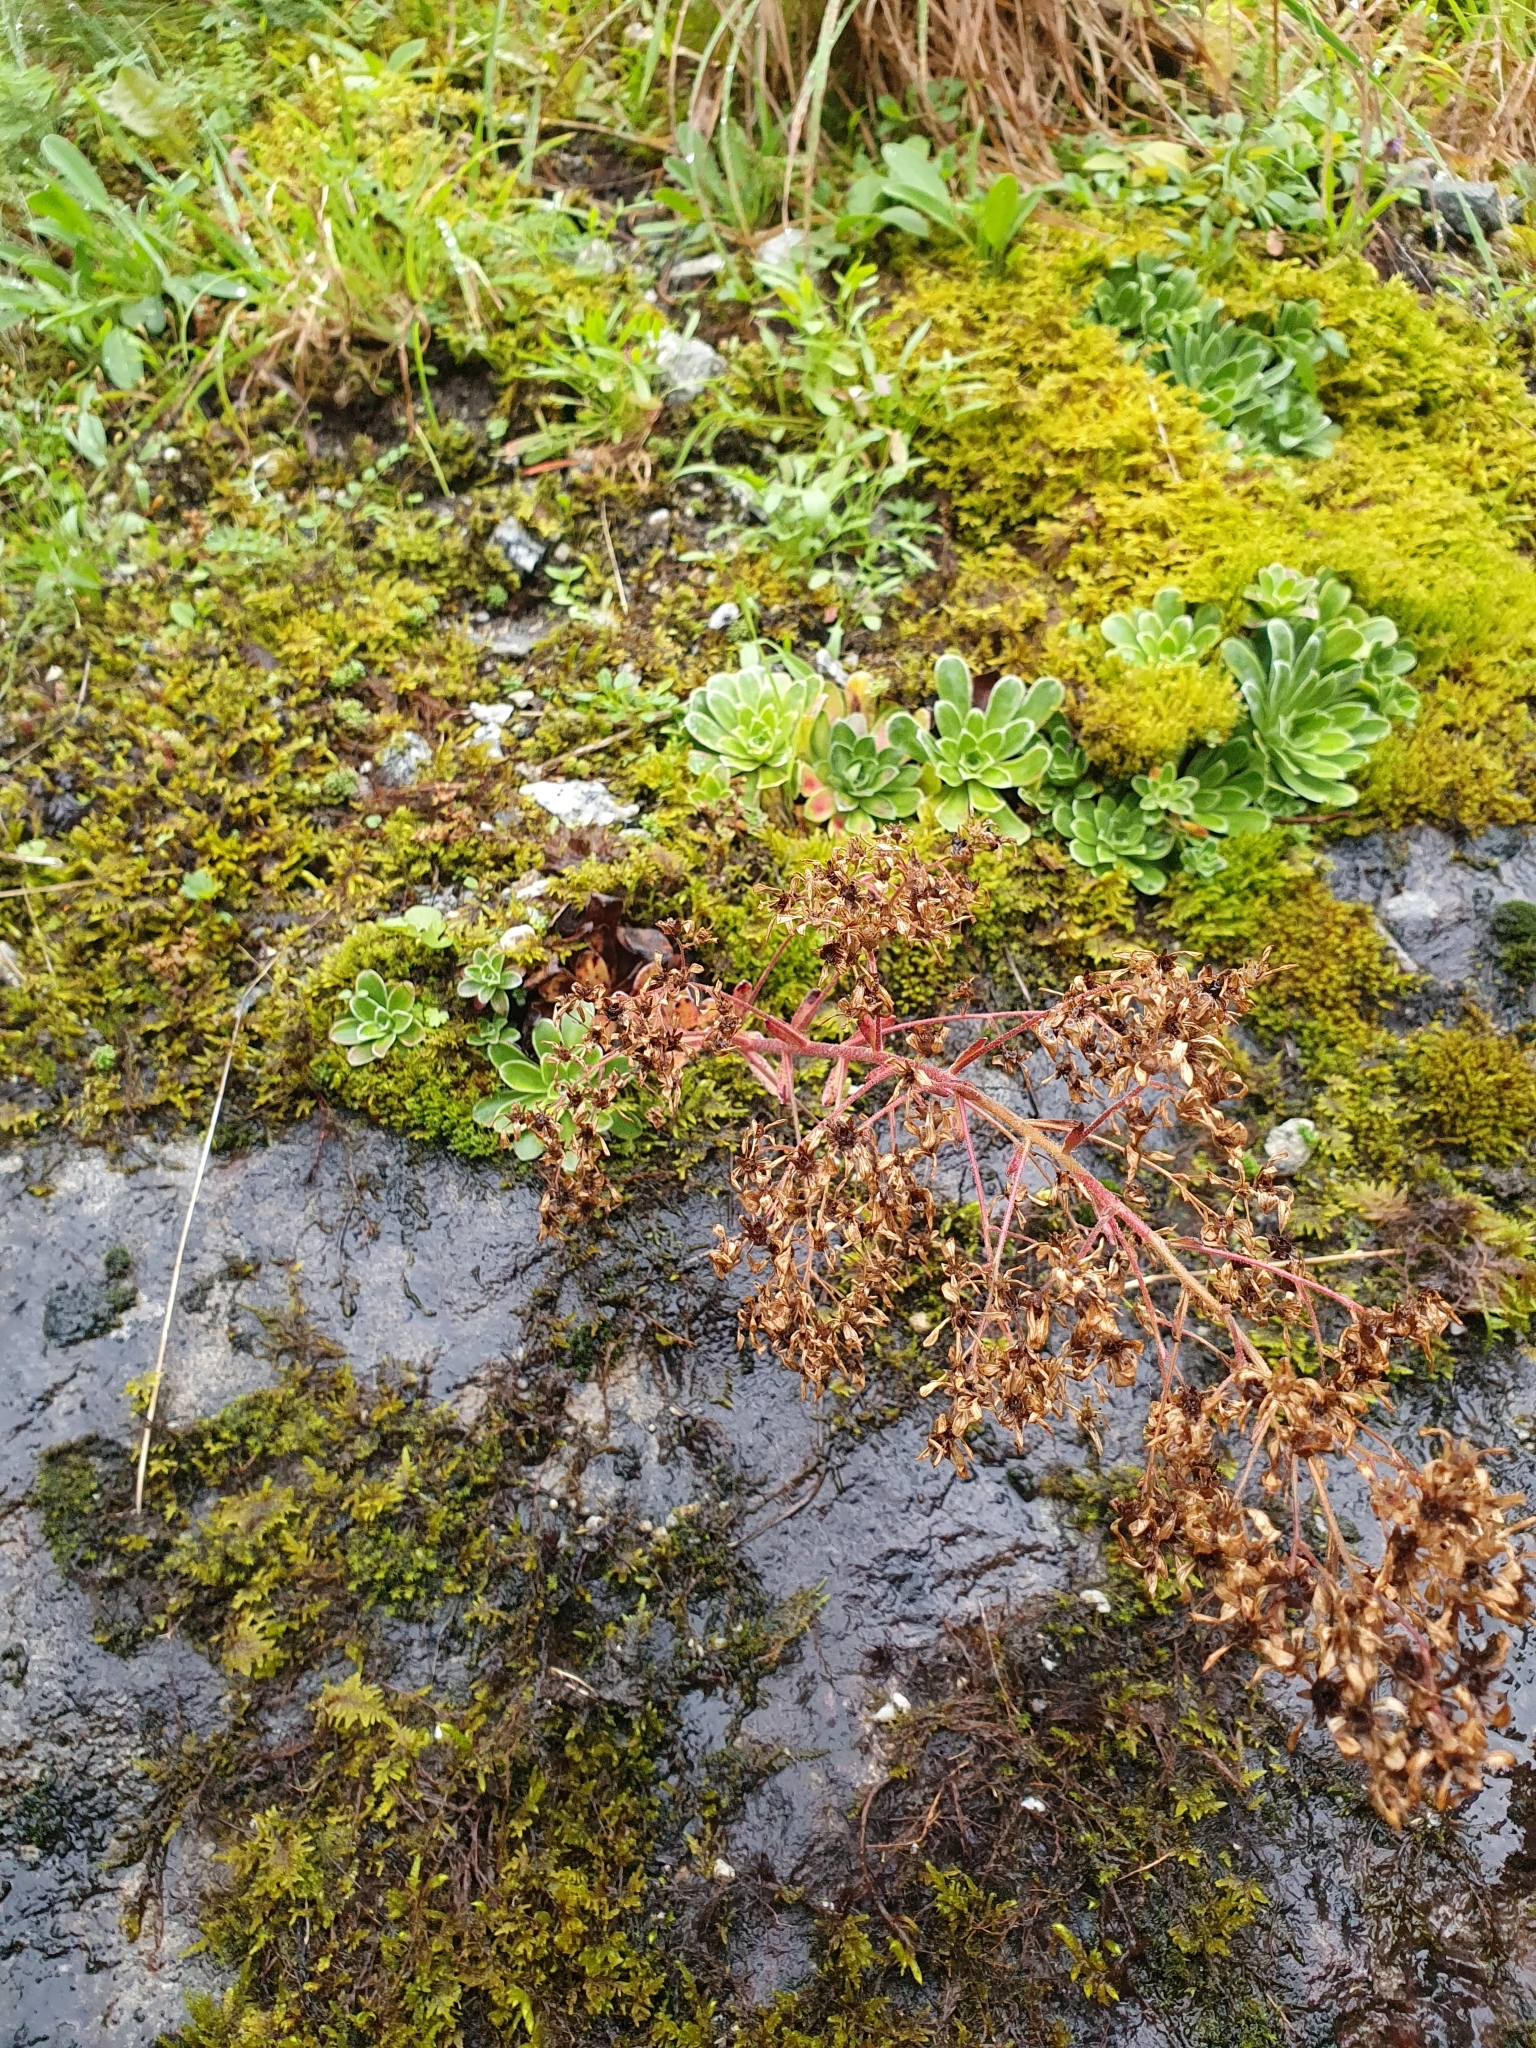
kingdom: Plantae
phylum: Tracheophyta
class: Magnoliopsida
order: Saxifragales
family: Saxifragaceae
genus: Saxifraga
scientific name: Saxifraga cotyledon
